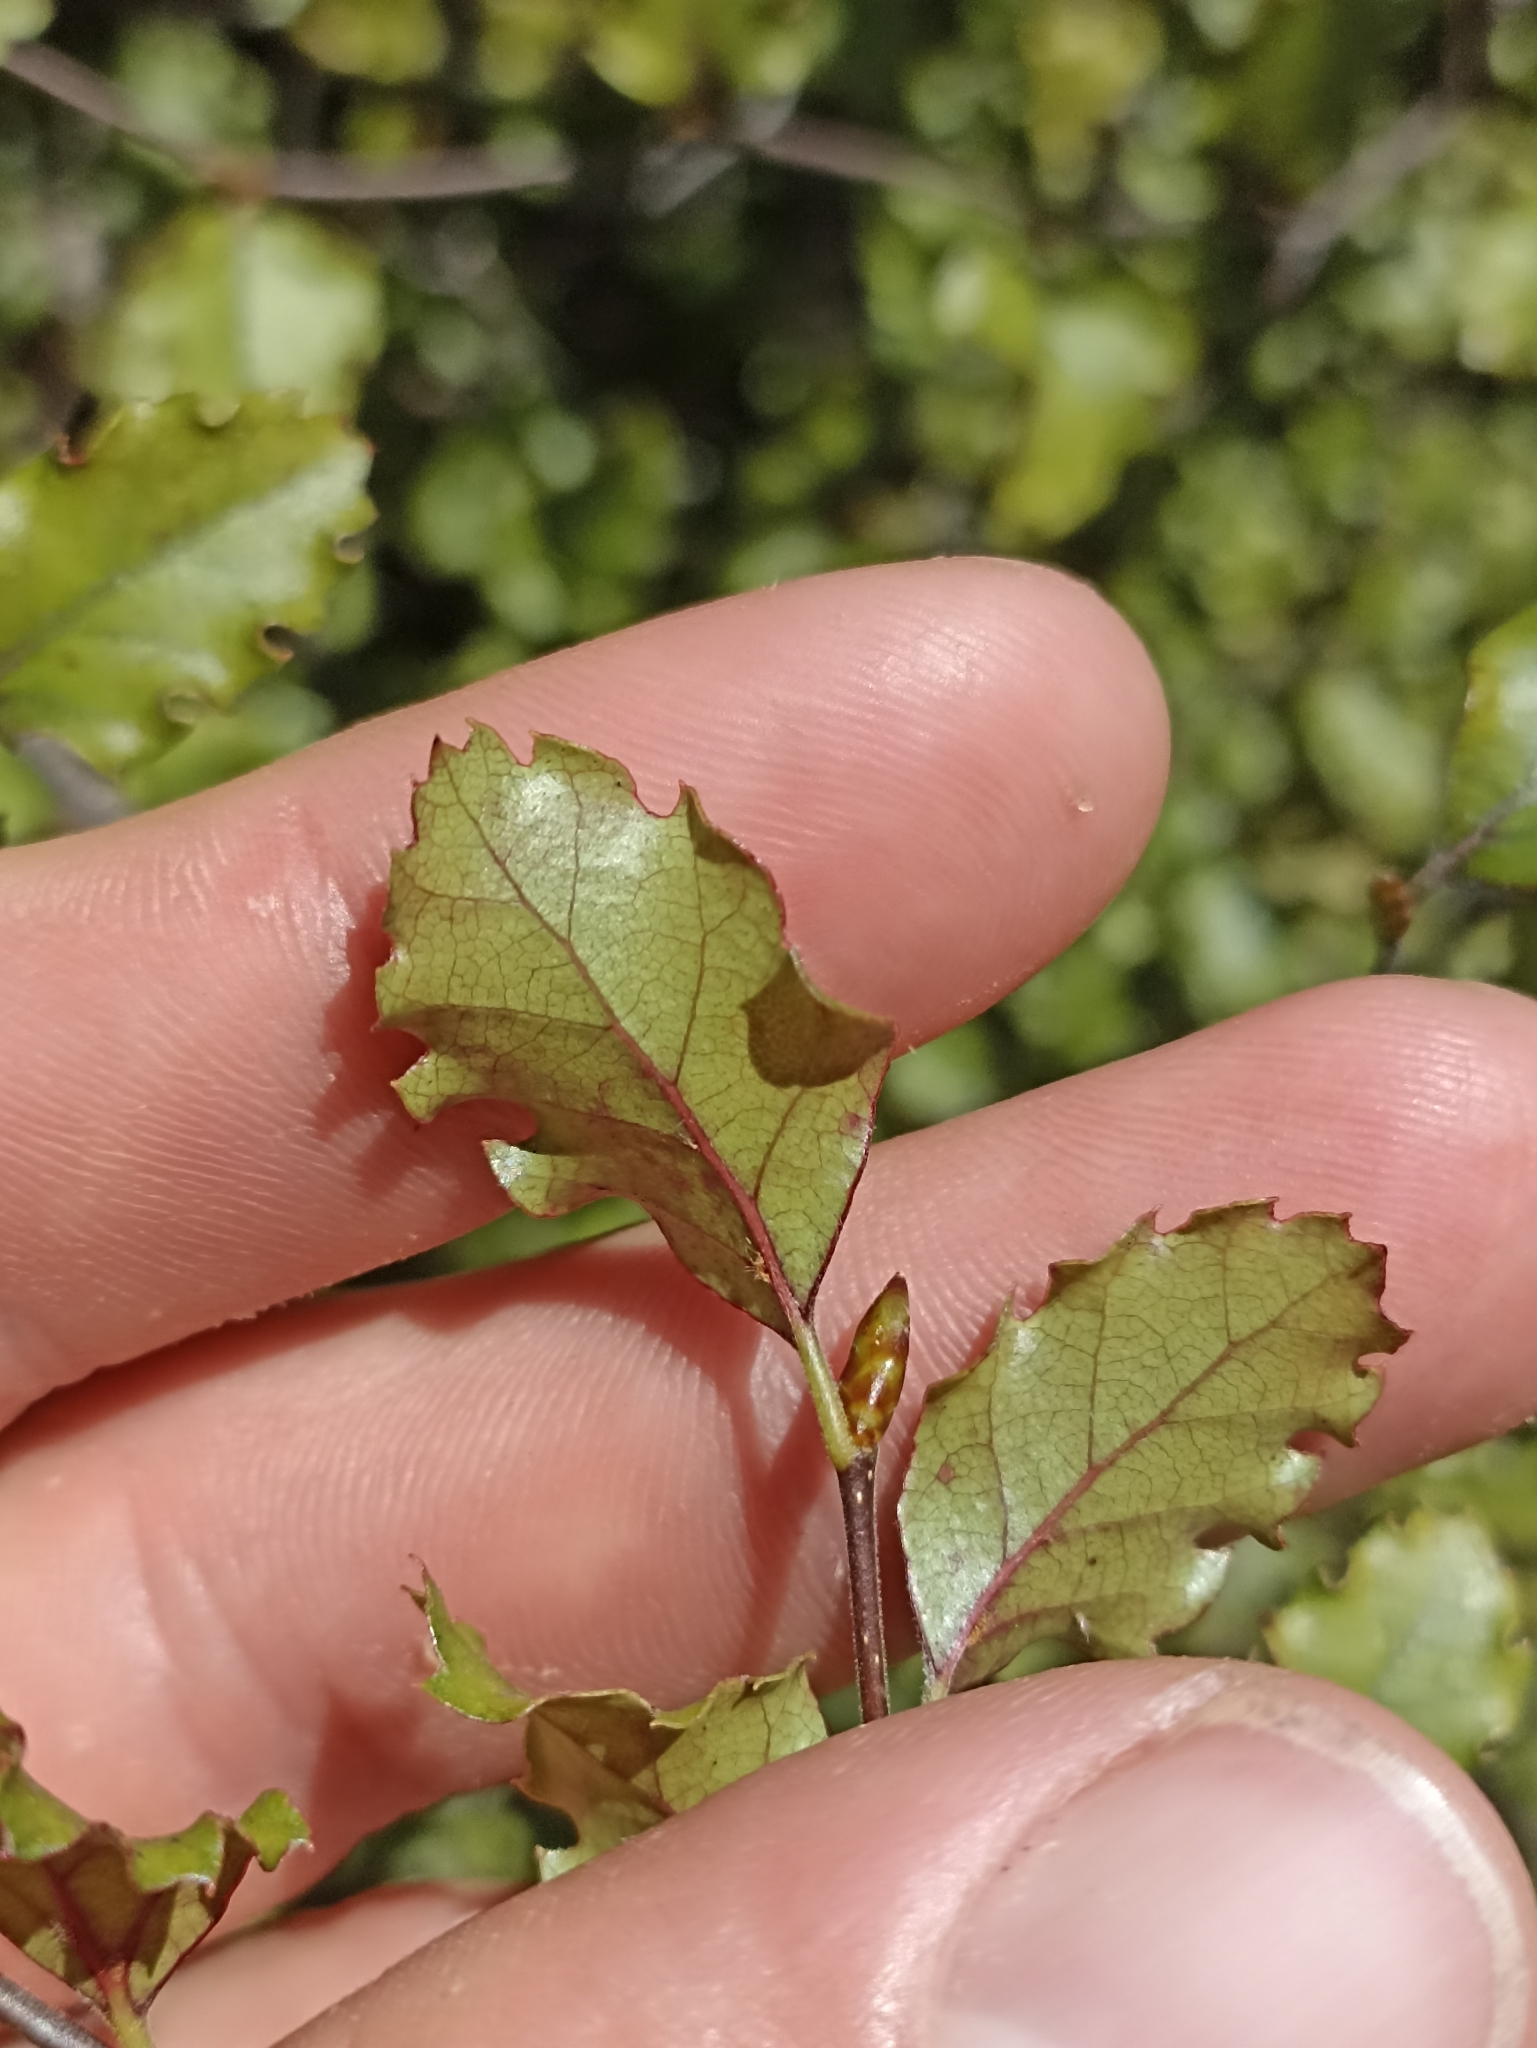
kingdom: Plantae
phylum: Tracheophyta
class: Magnoliopsida
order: Fagales
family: Nothofagaceae
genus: Nothofagus
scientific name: Nothofagus fusca
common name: Red beech
